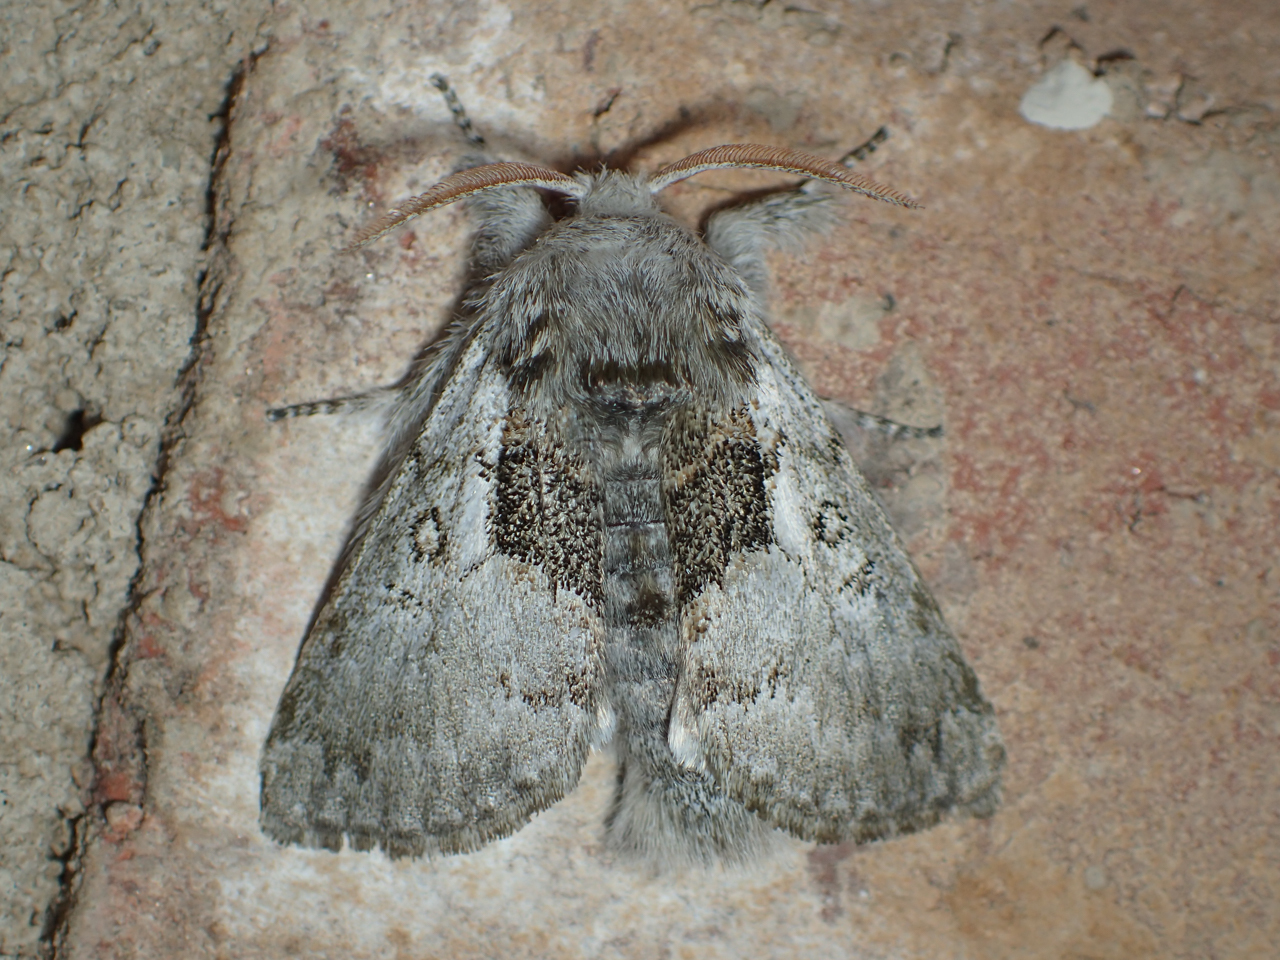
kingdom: Animalia
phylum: Arthropoda
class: Insecta
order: Lepidoptera
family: Noctuidae
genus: Colocasia
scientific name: Colocasia flavicornis
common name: Saddled yellowhorn
